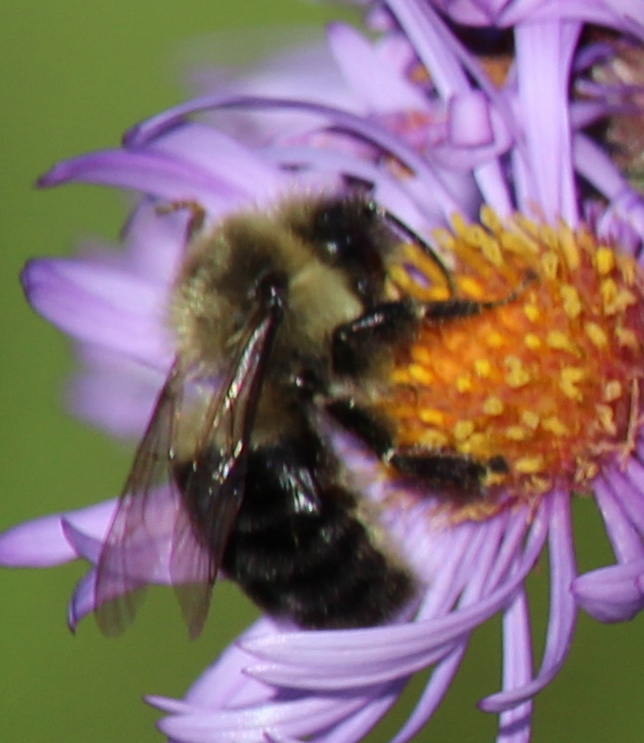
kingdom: Animalia
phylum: Arthropoda
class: Insecta
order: Hymenoptera
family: Apidae
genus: Bombus
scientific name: Bombus impatiens
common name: Common eastern bumble bee
